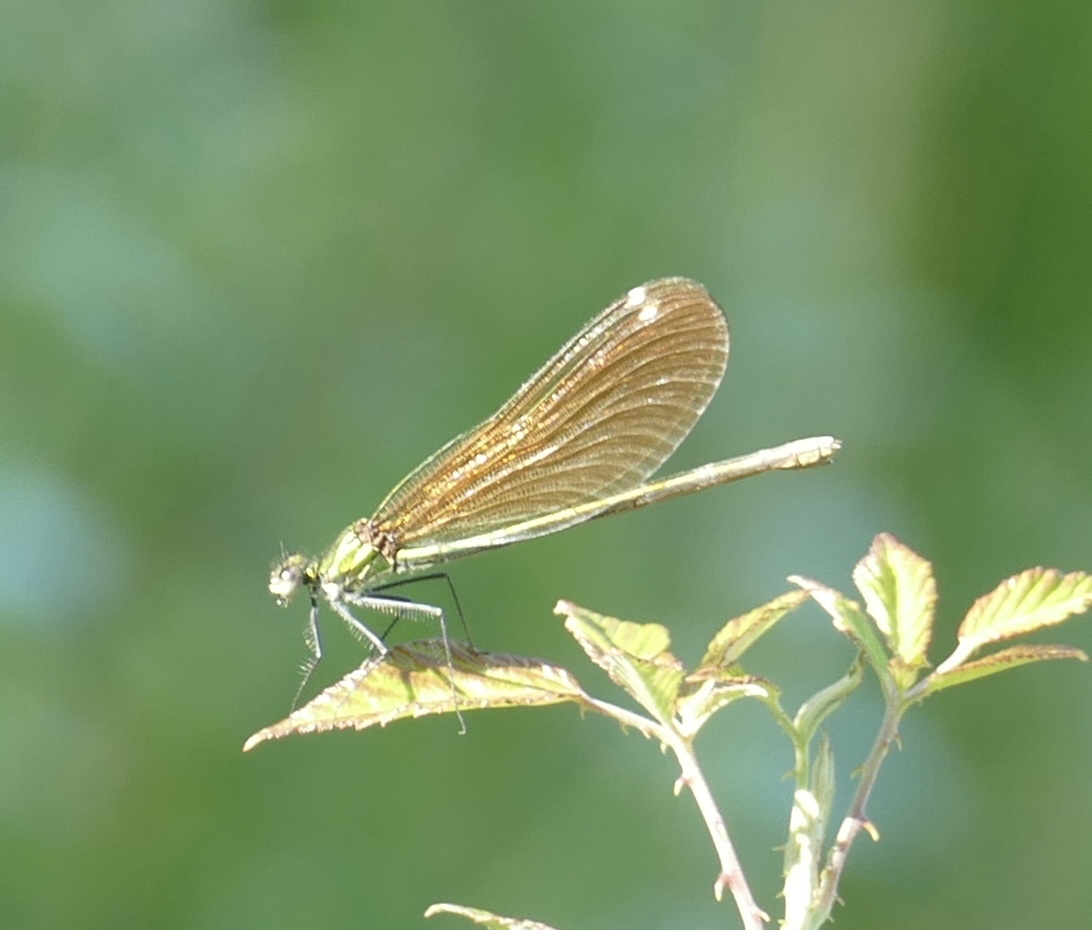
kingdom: Animalia
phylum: Arthropoda
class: Insecta
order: Odonata
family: Calopterygidae
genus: Calopteryx
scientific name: Calopteryx virgo
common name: Beautiful demoiselle
